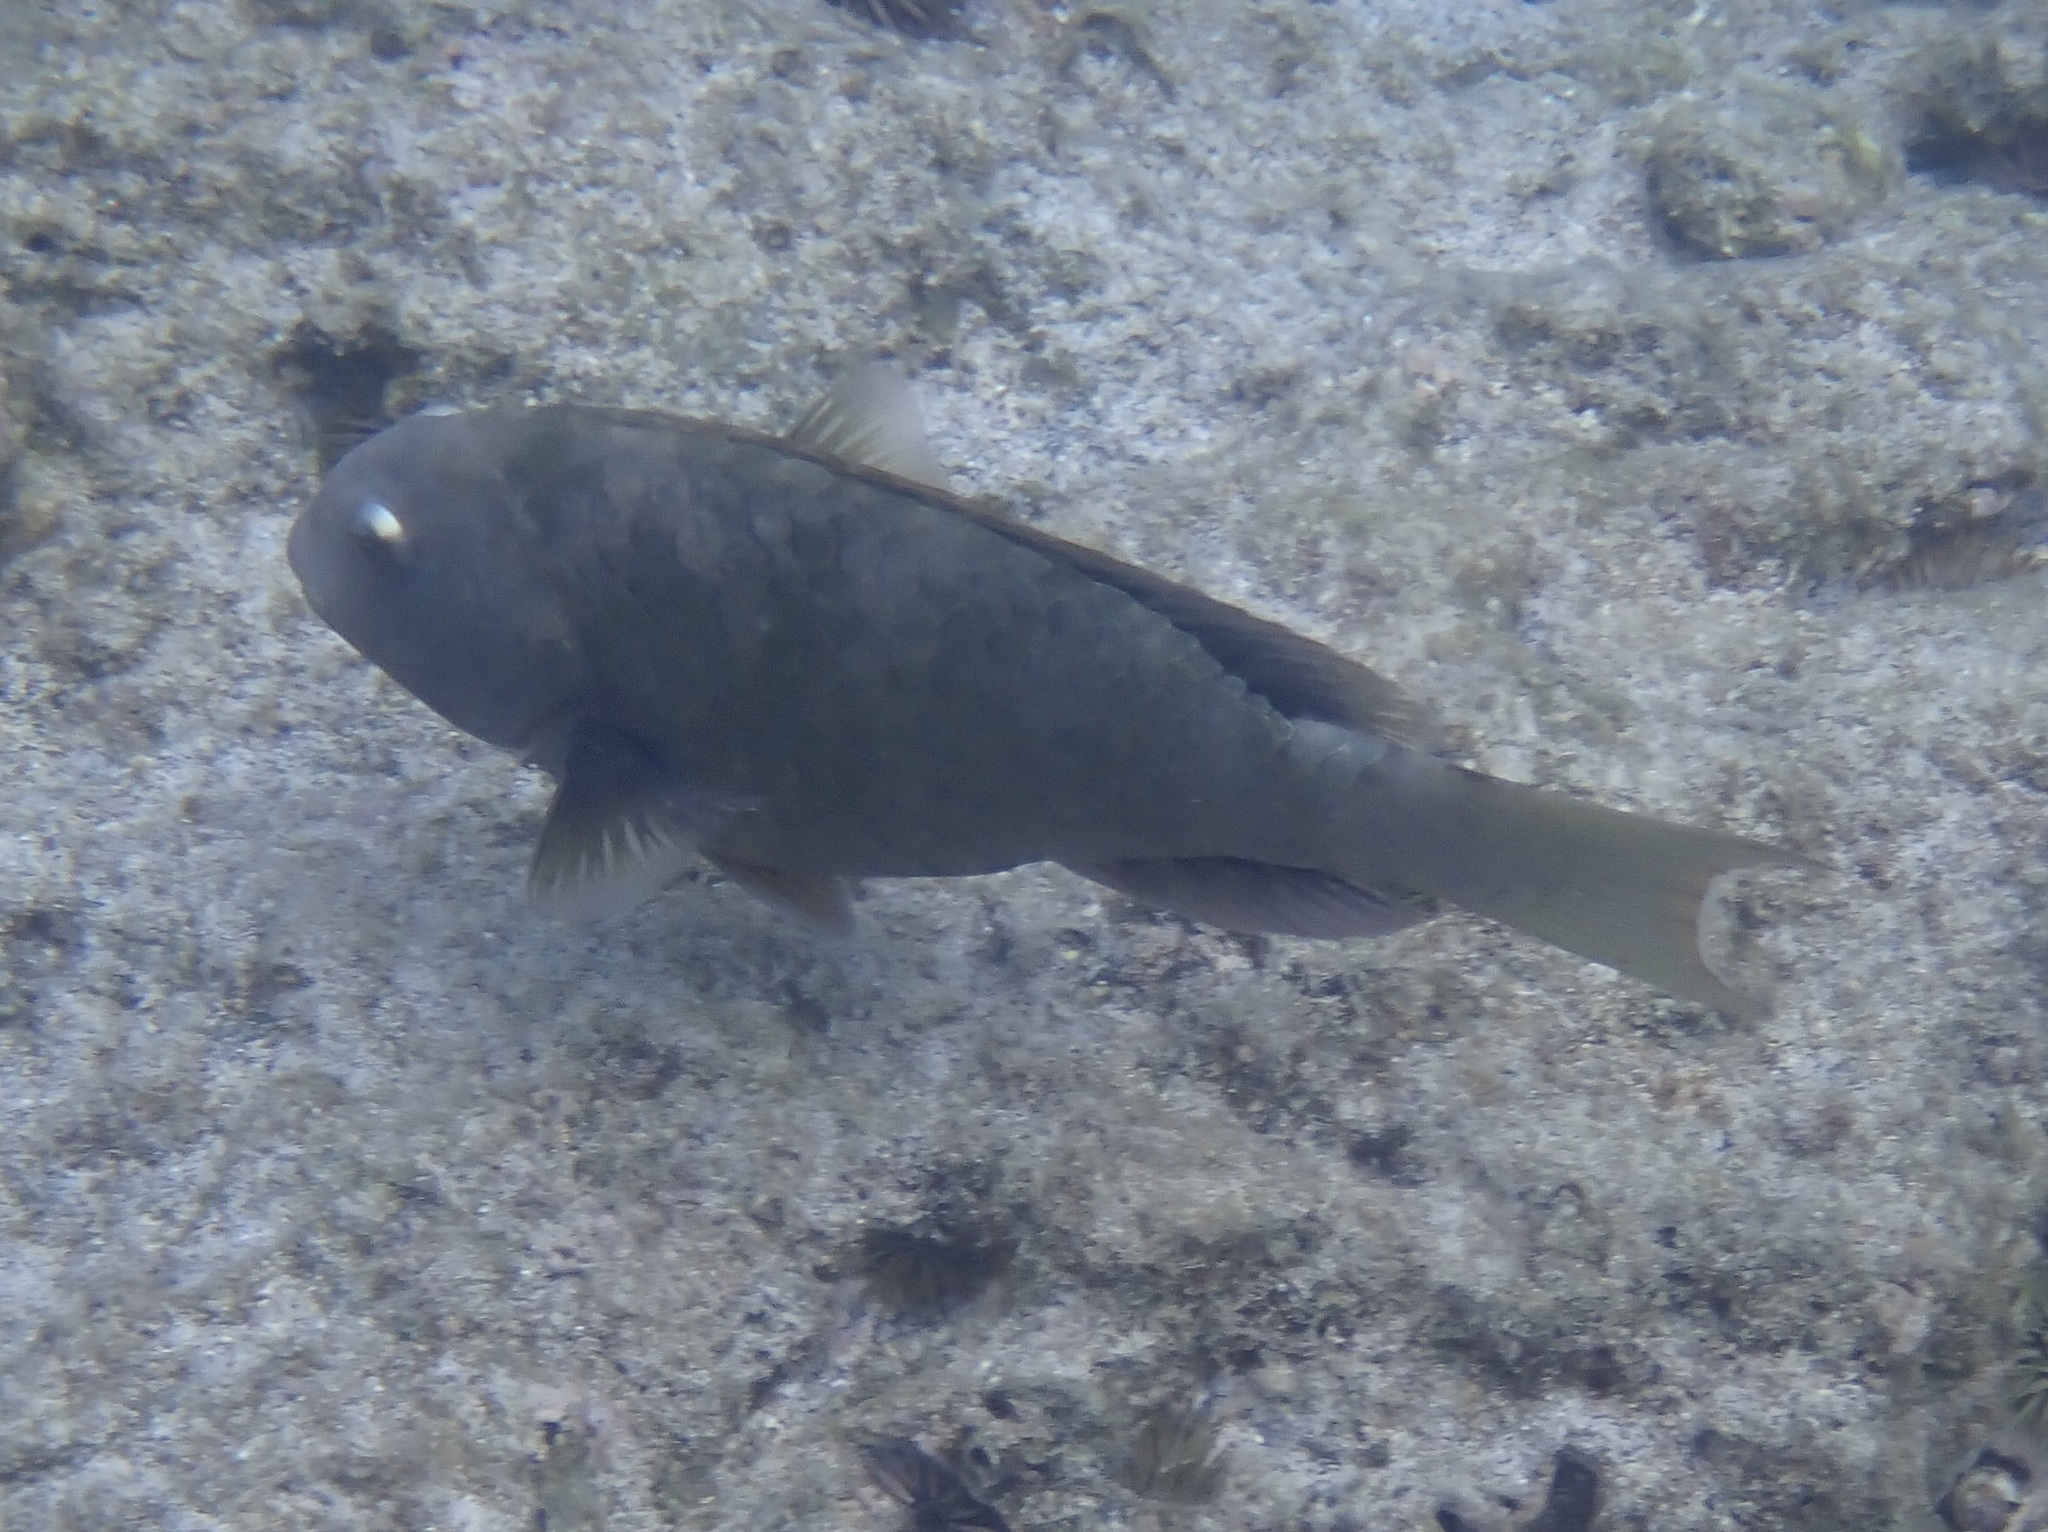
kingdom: Animalia
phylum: Chordata
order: Perciformes
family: Scaridae
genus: Calotomus
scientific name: Calotomus carolinus
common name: Bucktooth
